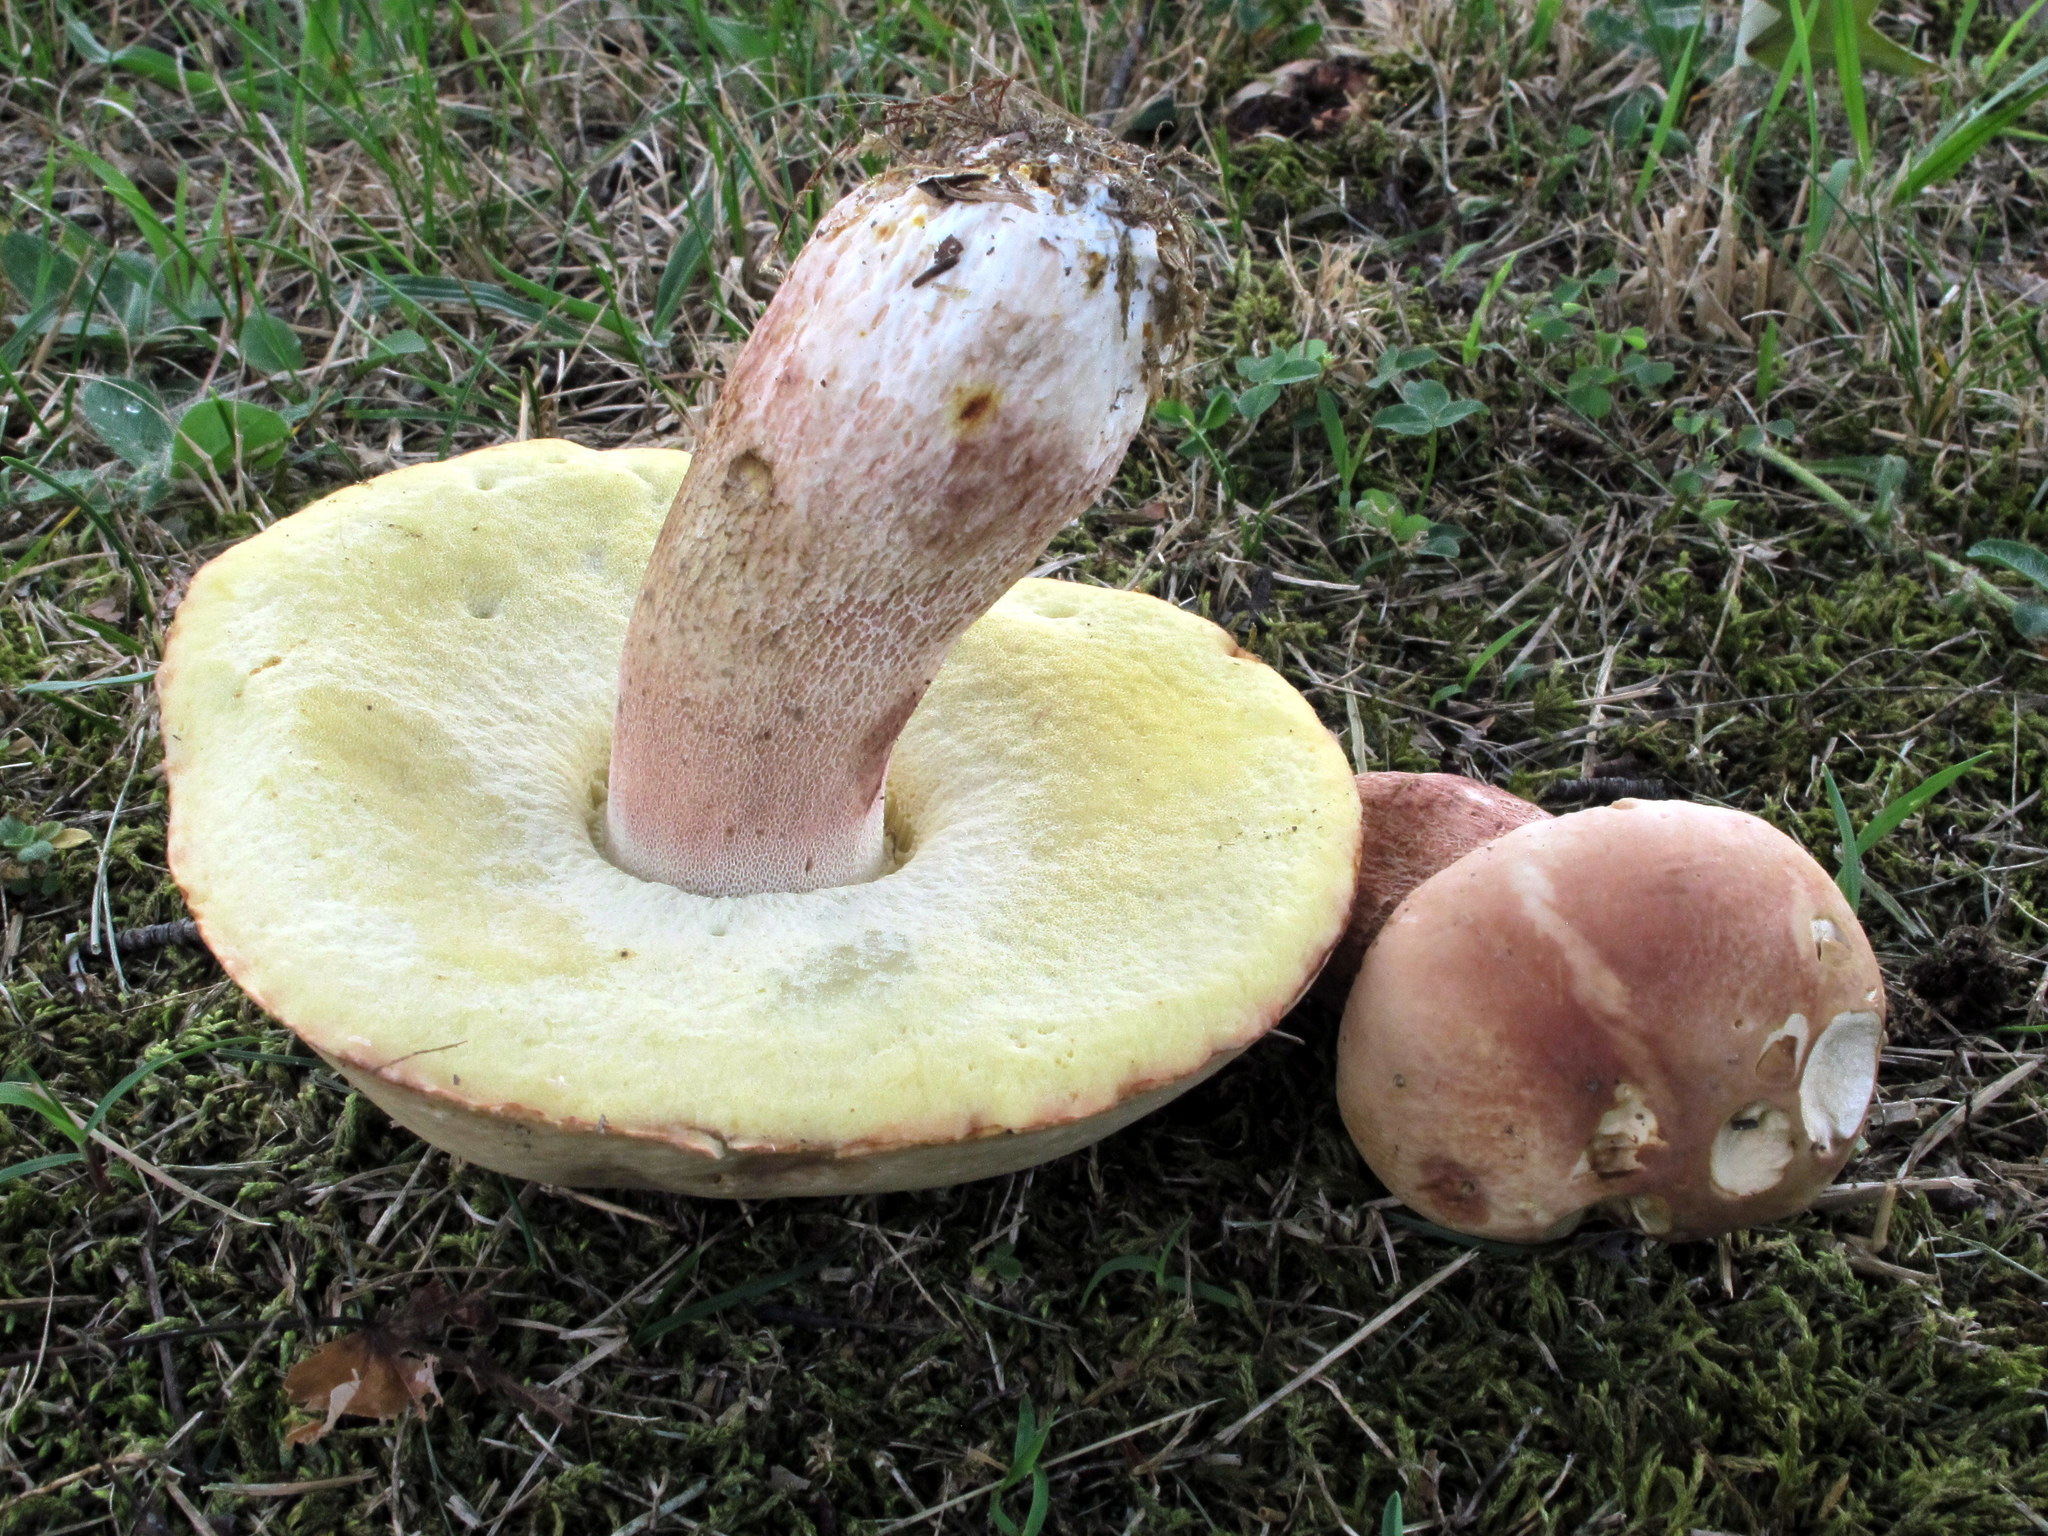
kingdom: Fungi
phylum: Basidiomycota
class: Agaricomycetes
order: Boletales
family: Boletaceae
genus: Xanthoconium
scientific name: Xanthoconium separans
